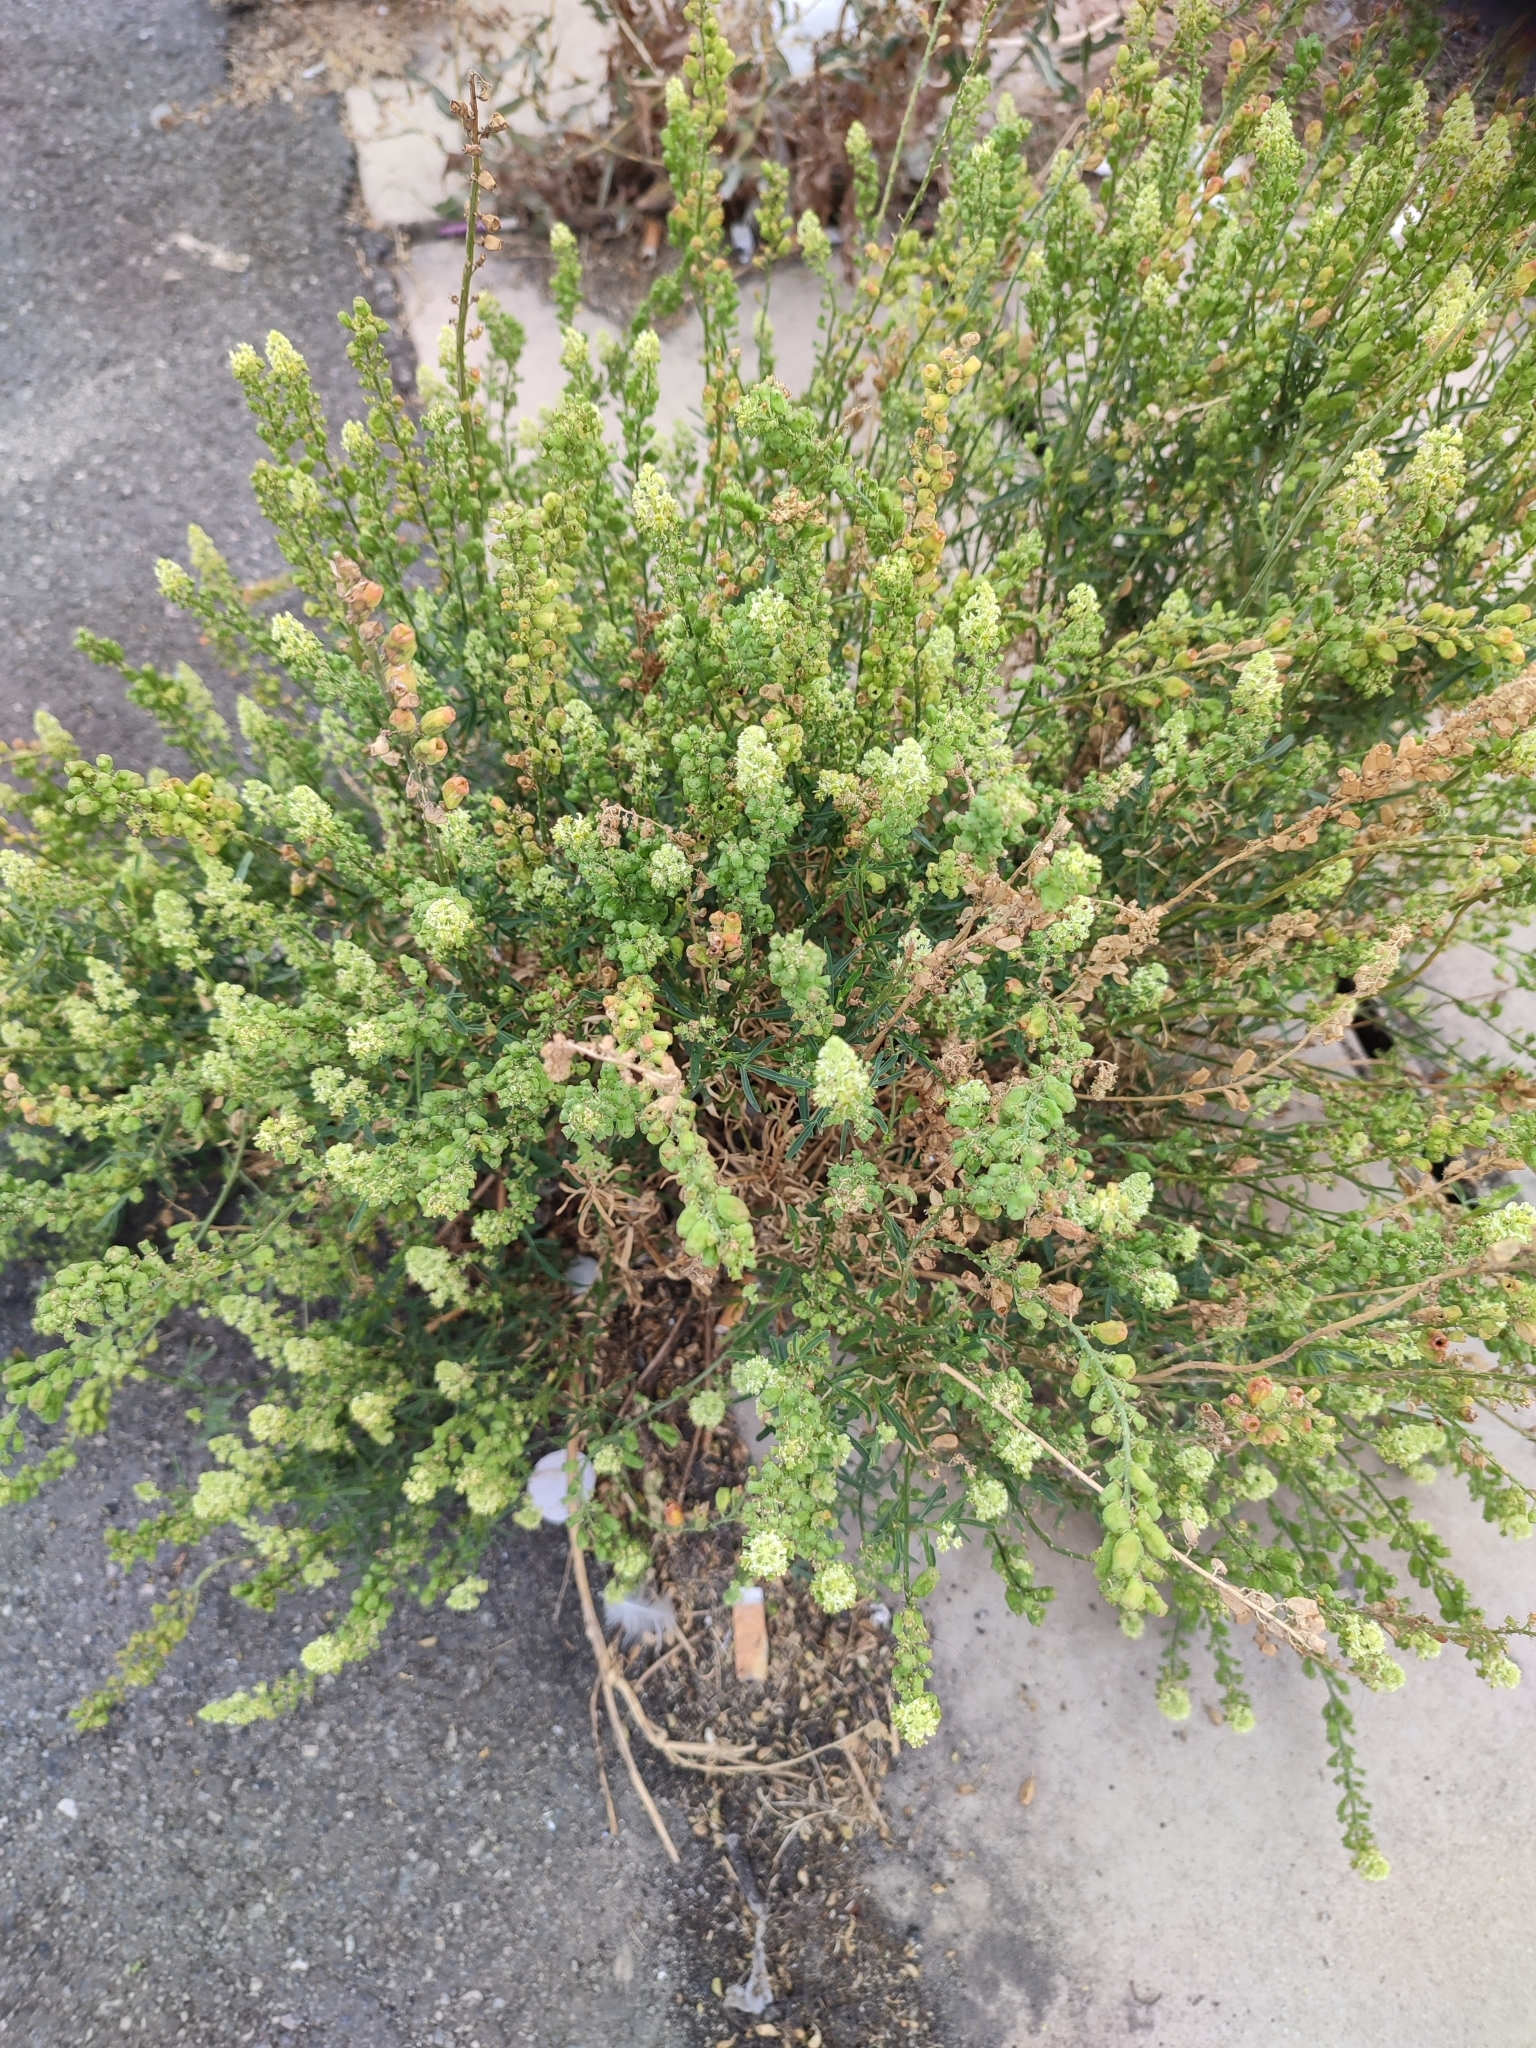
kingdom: Plantae
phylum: Tracheophyta
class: Magnoliopsida
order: Brassicales
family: Resedaceae
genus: Reseda
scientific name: Reseda lutea
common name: Wild mignonette
